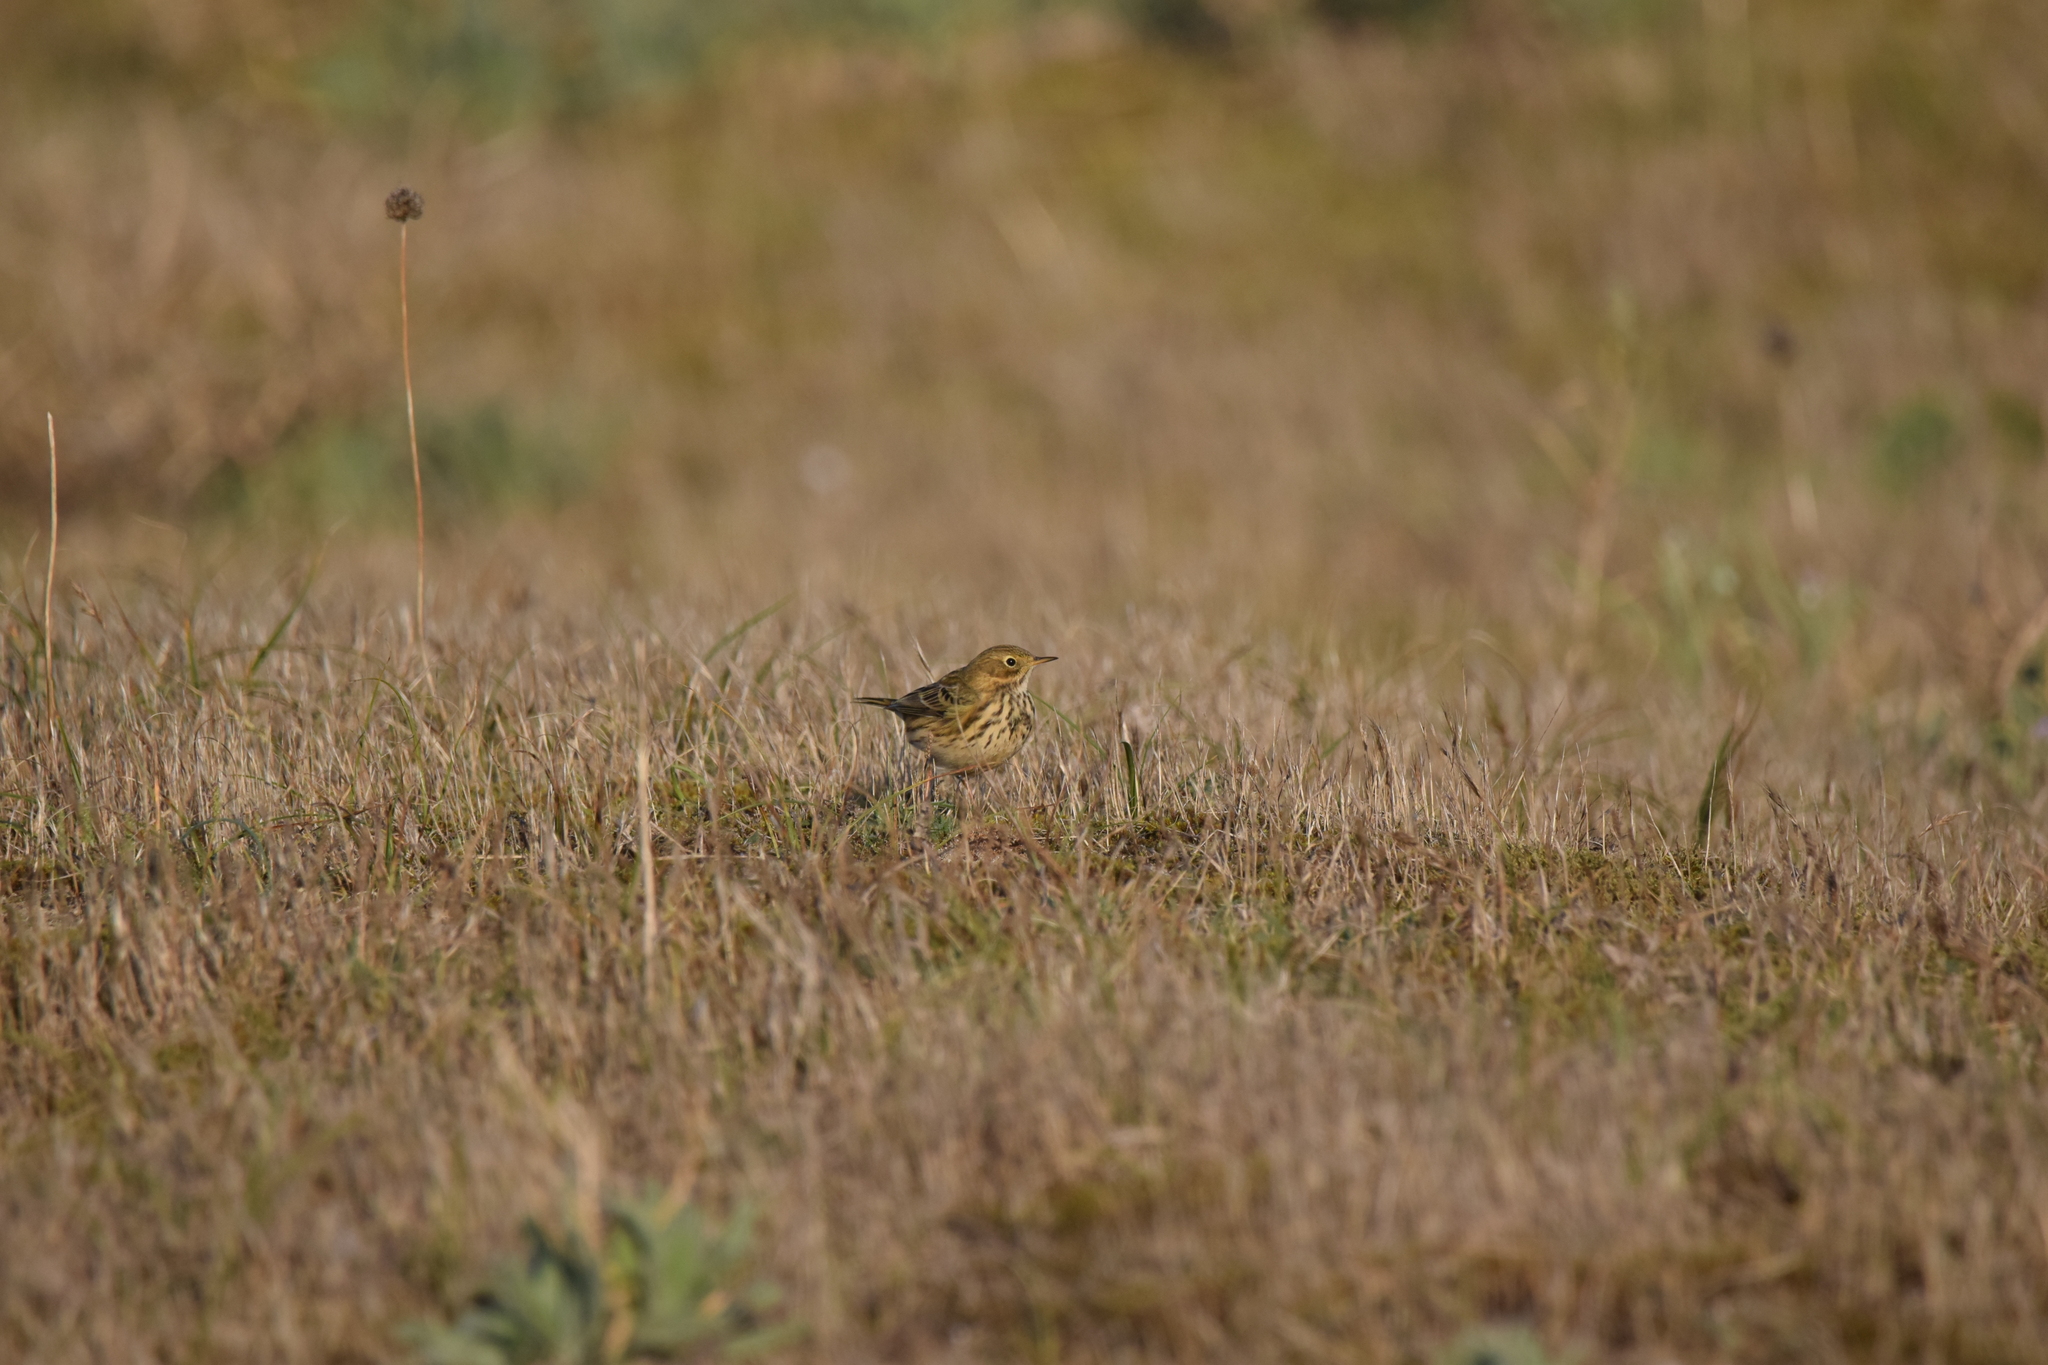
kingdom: Animalia
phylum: Chordata
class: Aves
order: Passeriformes
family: Motacillidae
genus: Anthus
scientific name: Anthus pratensis
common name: Meadow pipit
